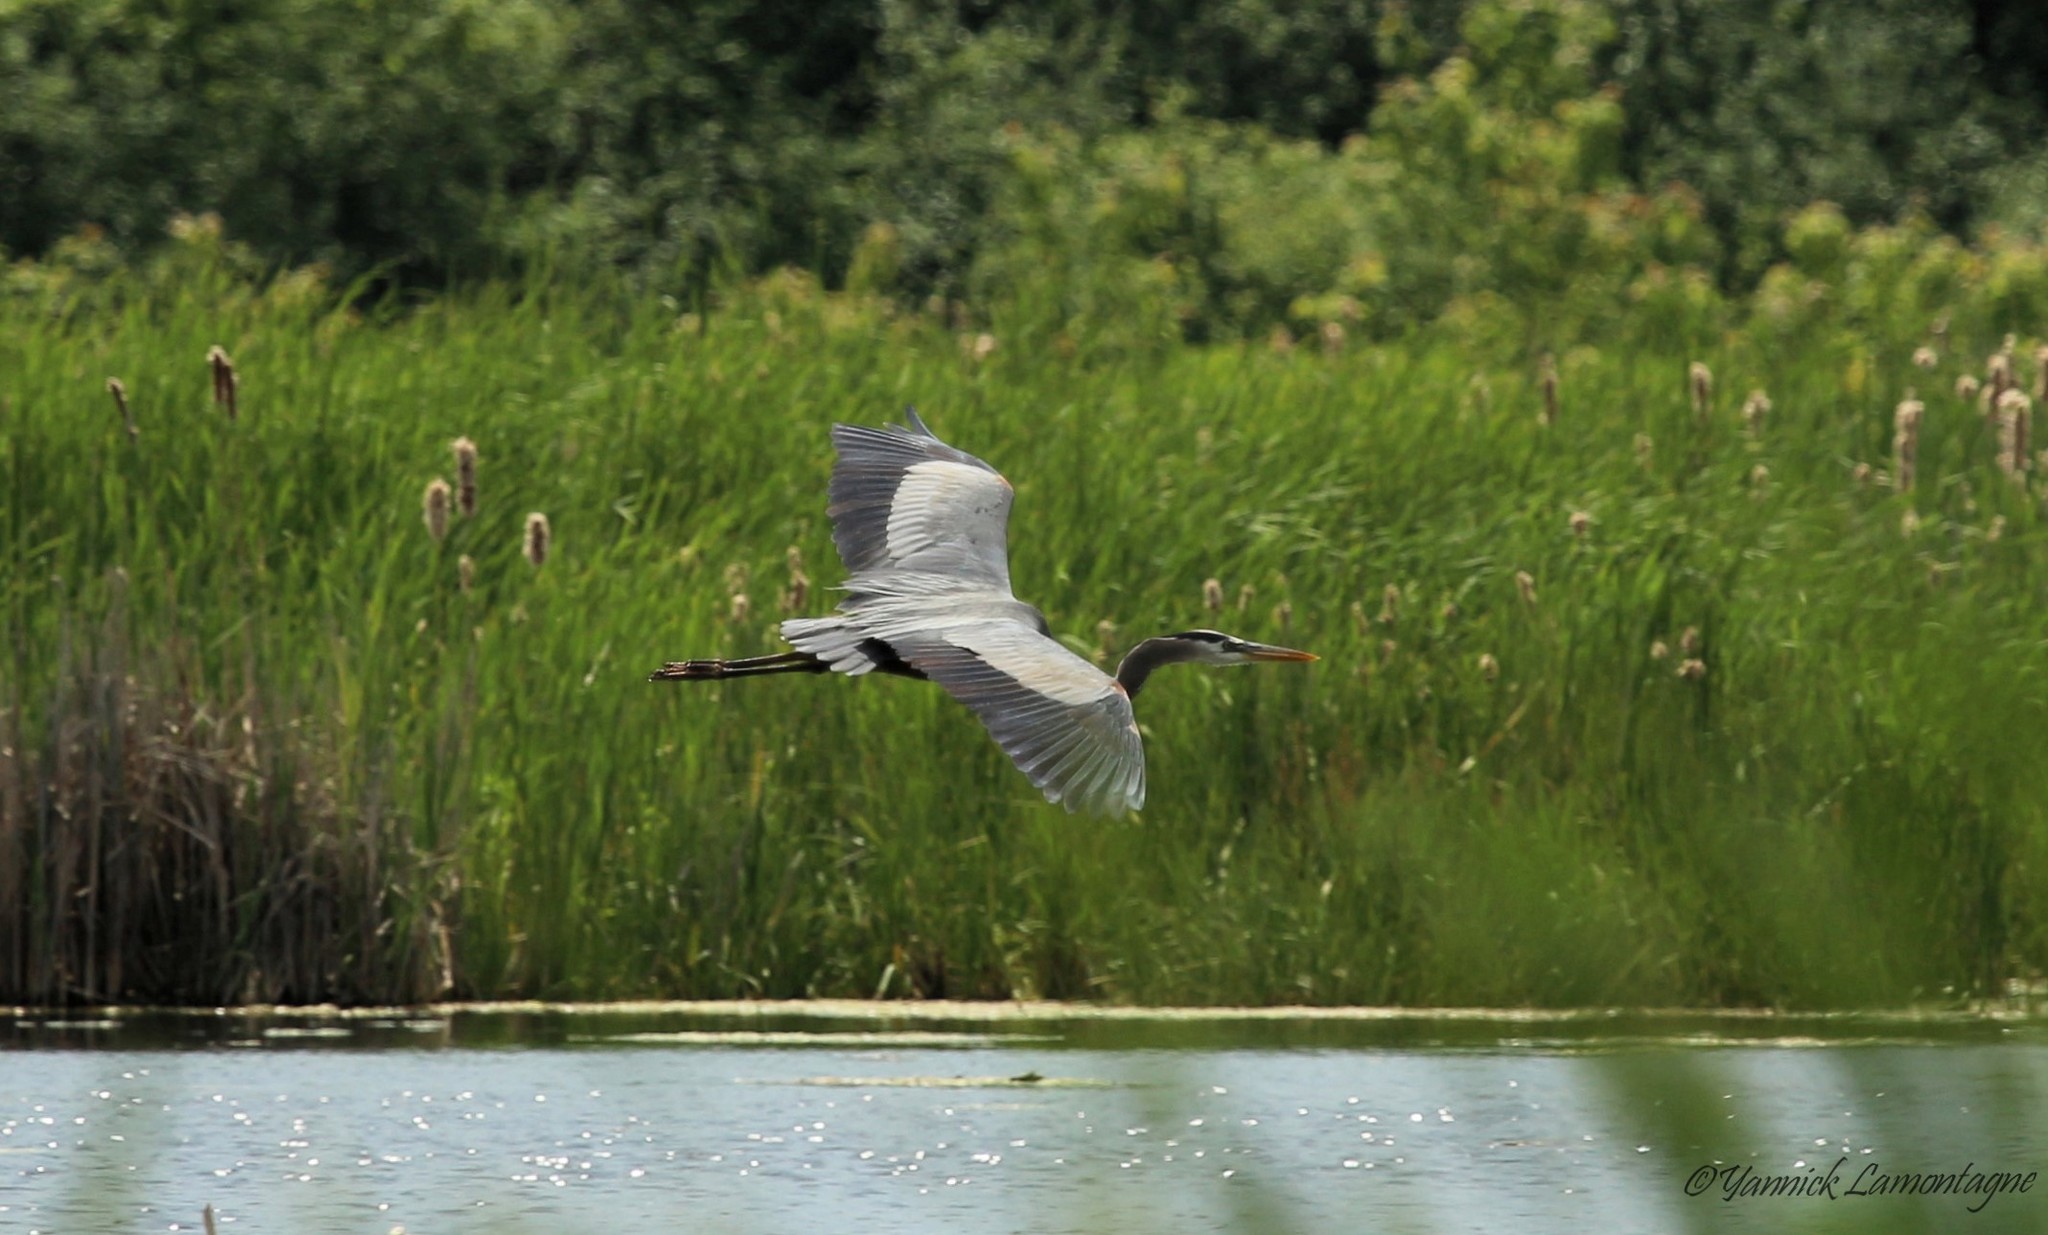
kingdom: Animalia
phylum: Chordata
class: Aves
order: Pelecaniformes
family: Ardeidae
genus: Ardea
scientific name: Ardea herodias
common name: Great blue heron
